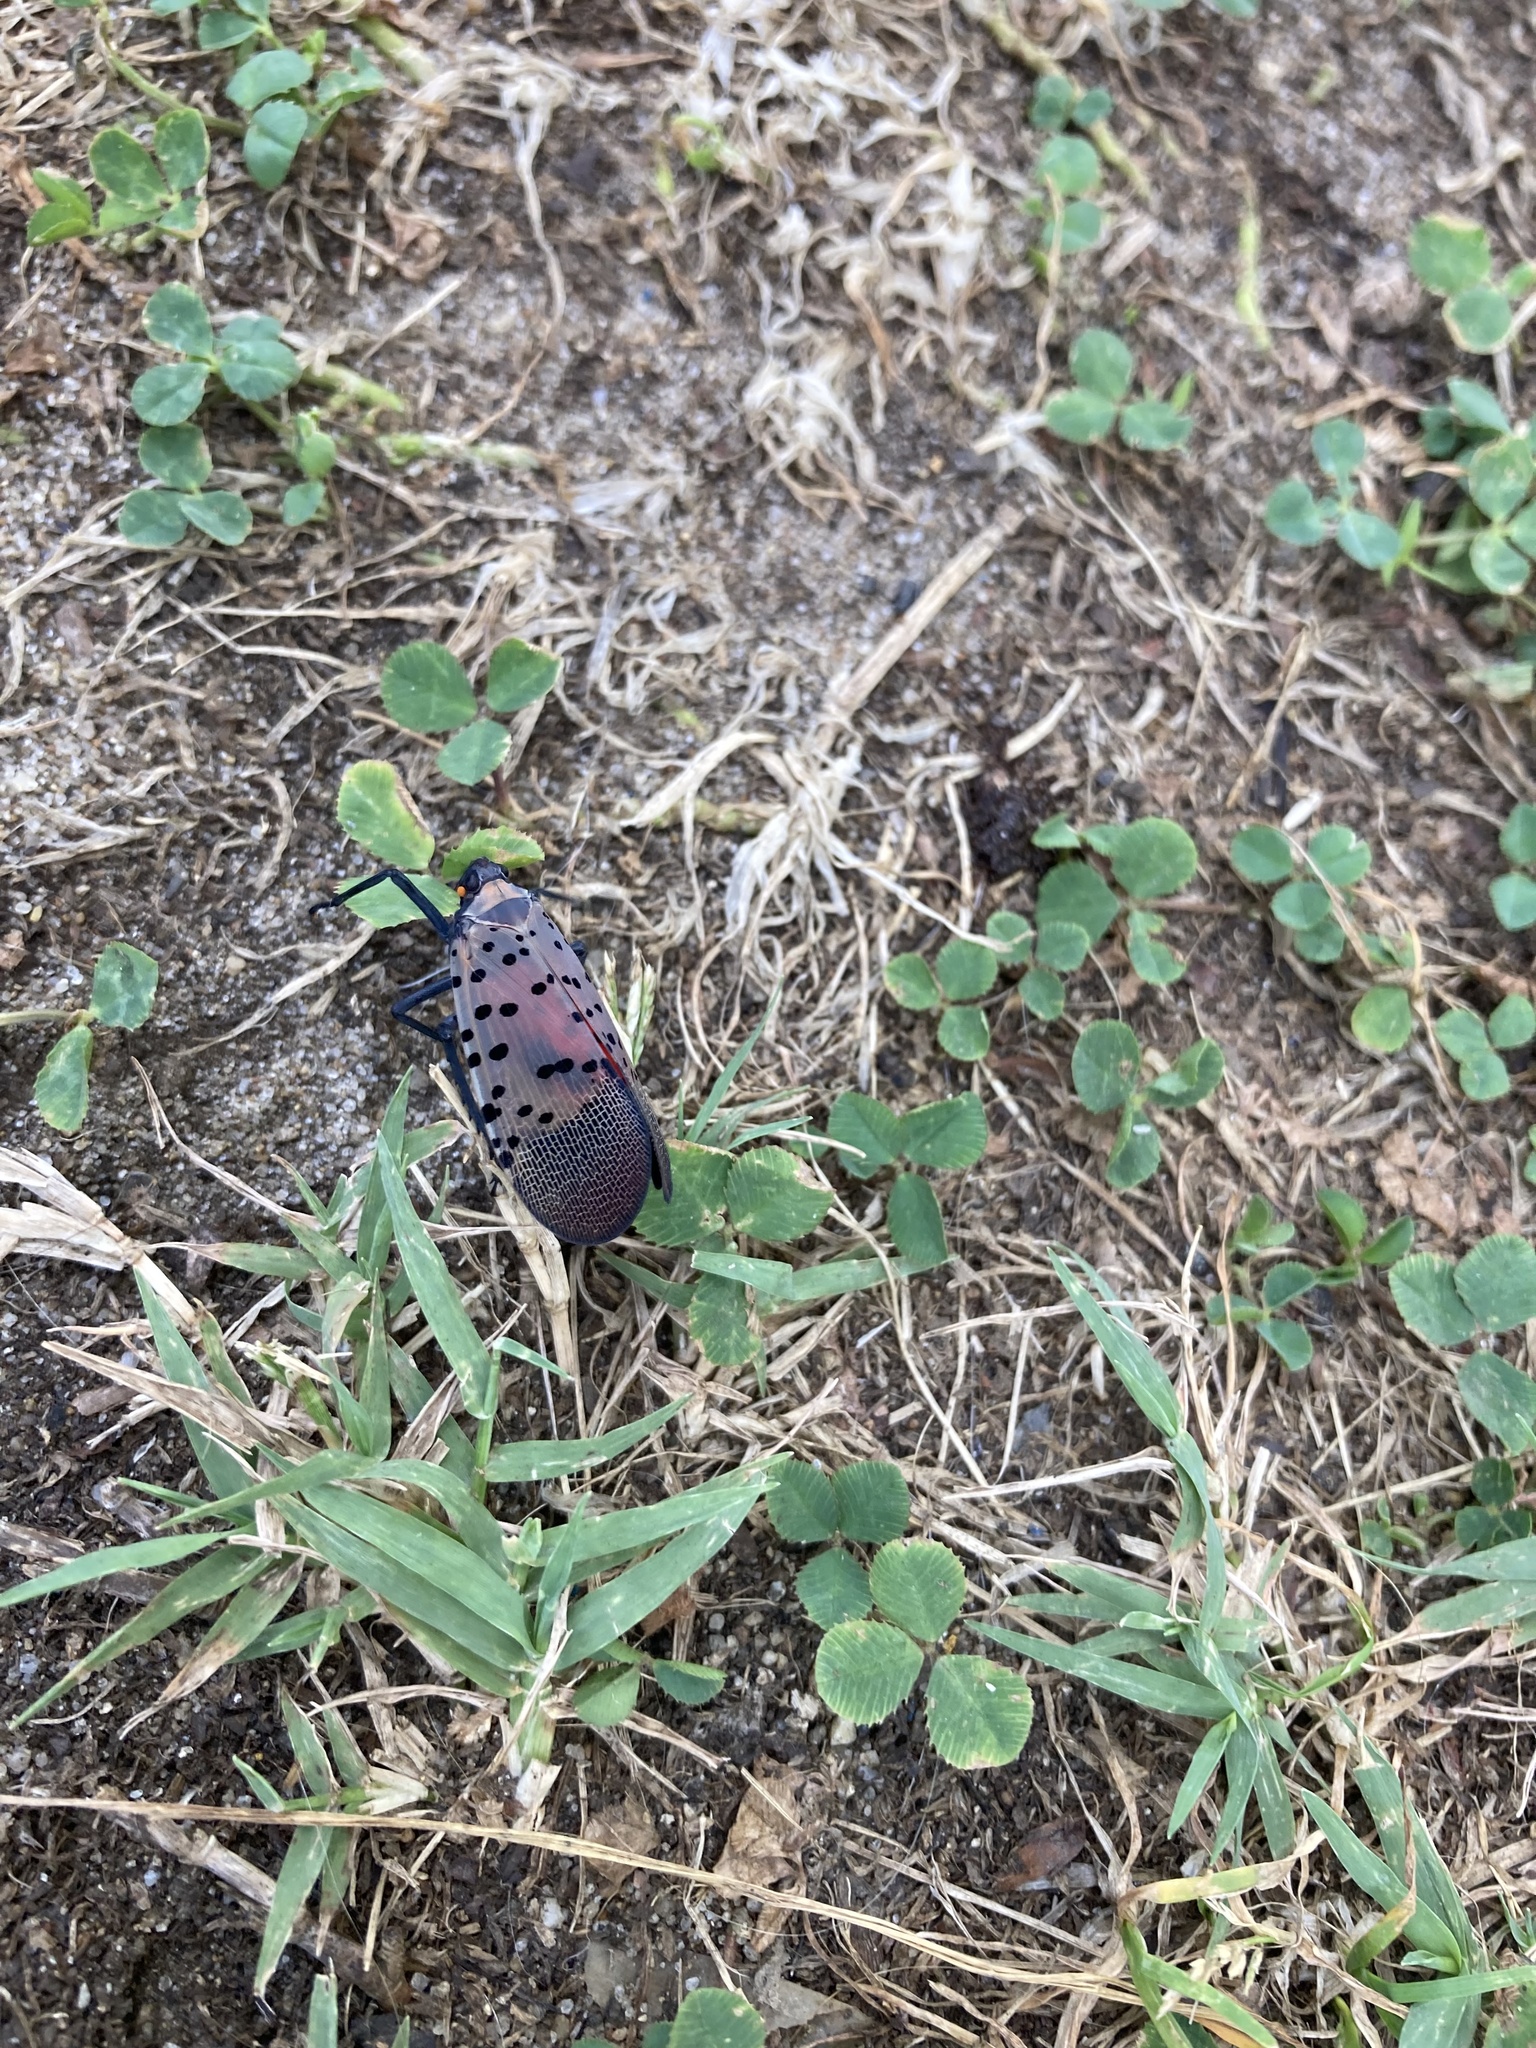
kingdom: Animalia
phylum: Arthropoda
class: Insecta
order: Hemiptera
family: Fulgoridae
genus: Lycorma
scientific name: Lycorma delicatula
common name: Spotted lanternfly
